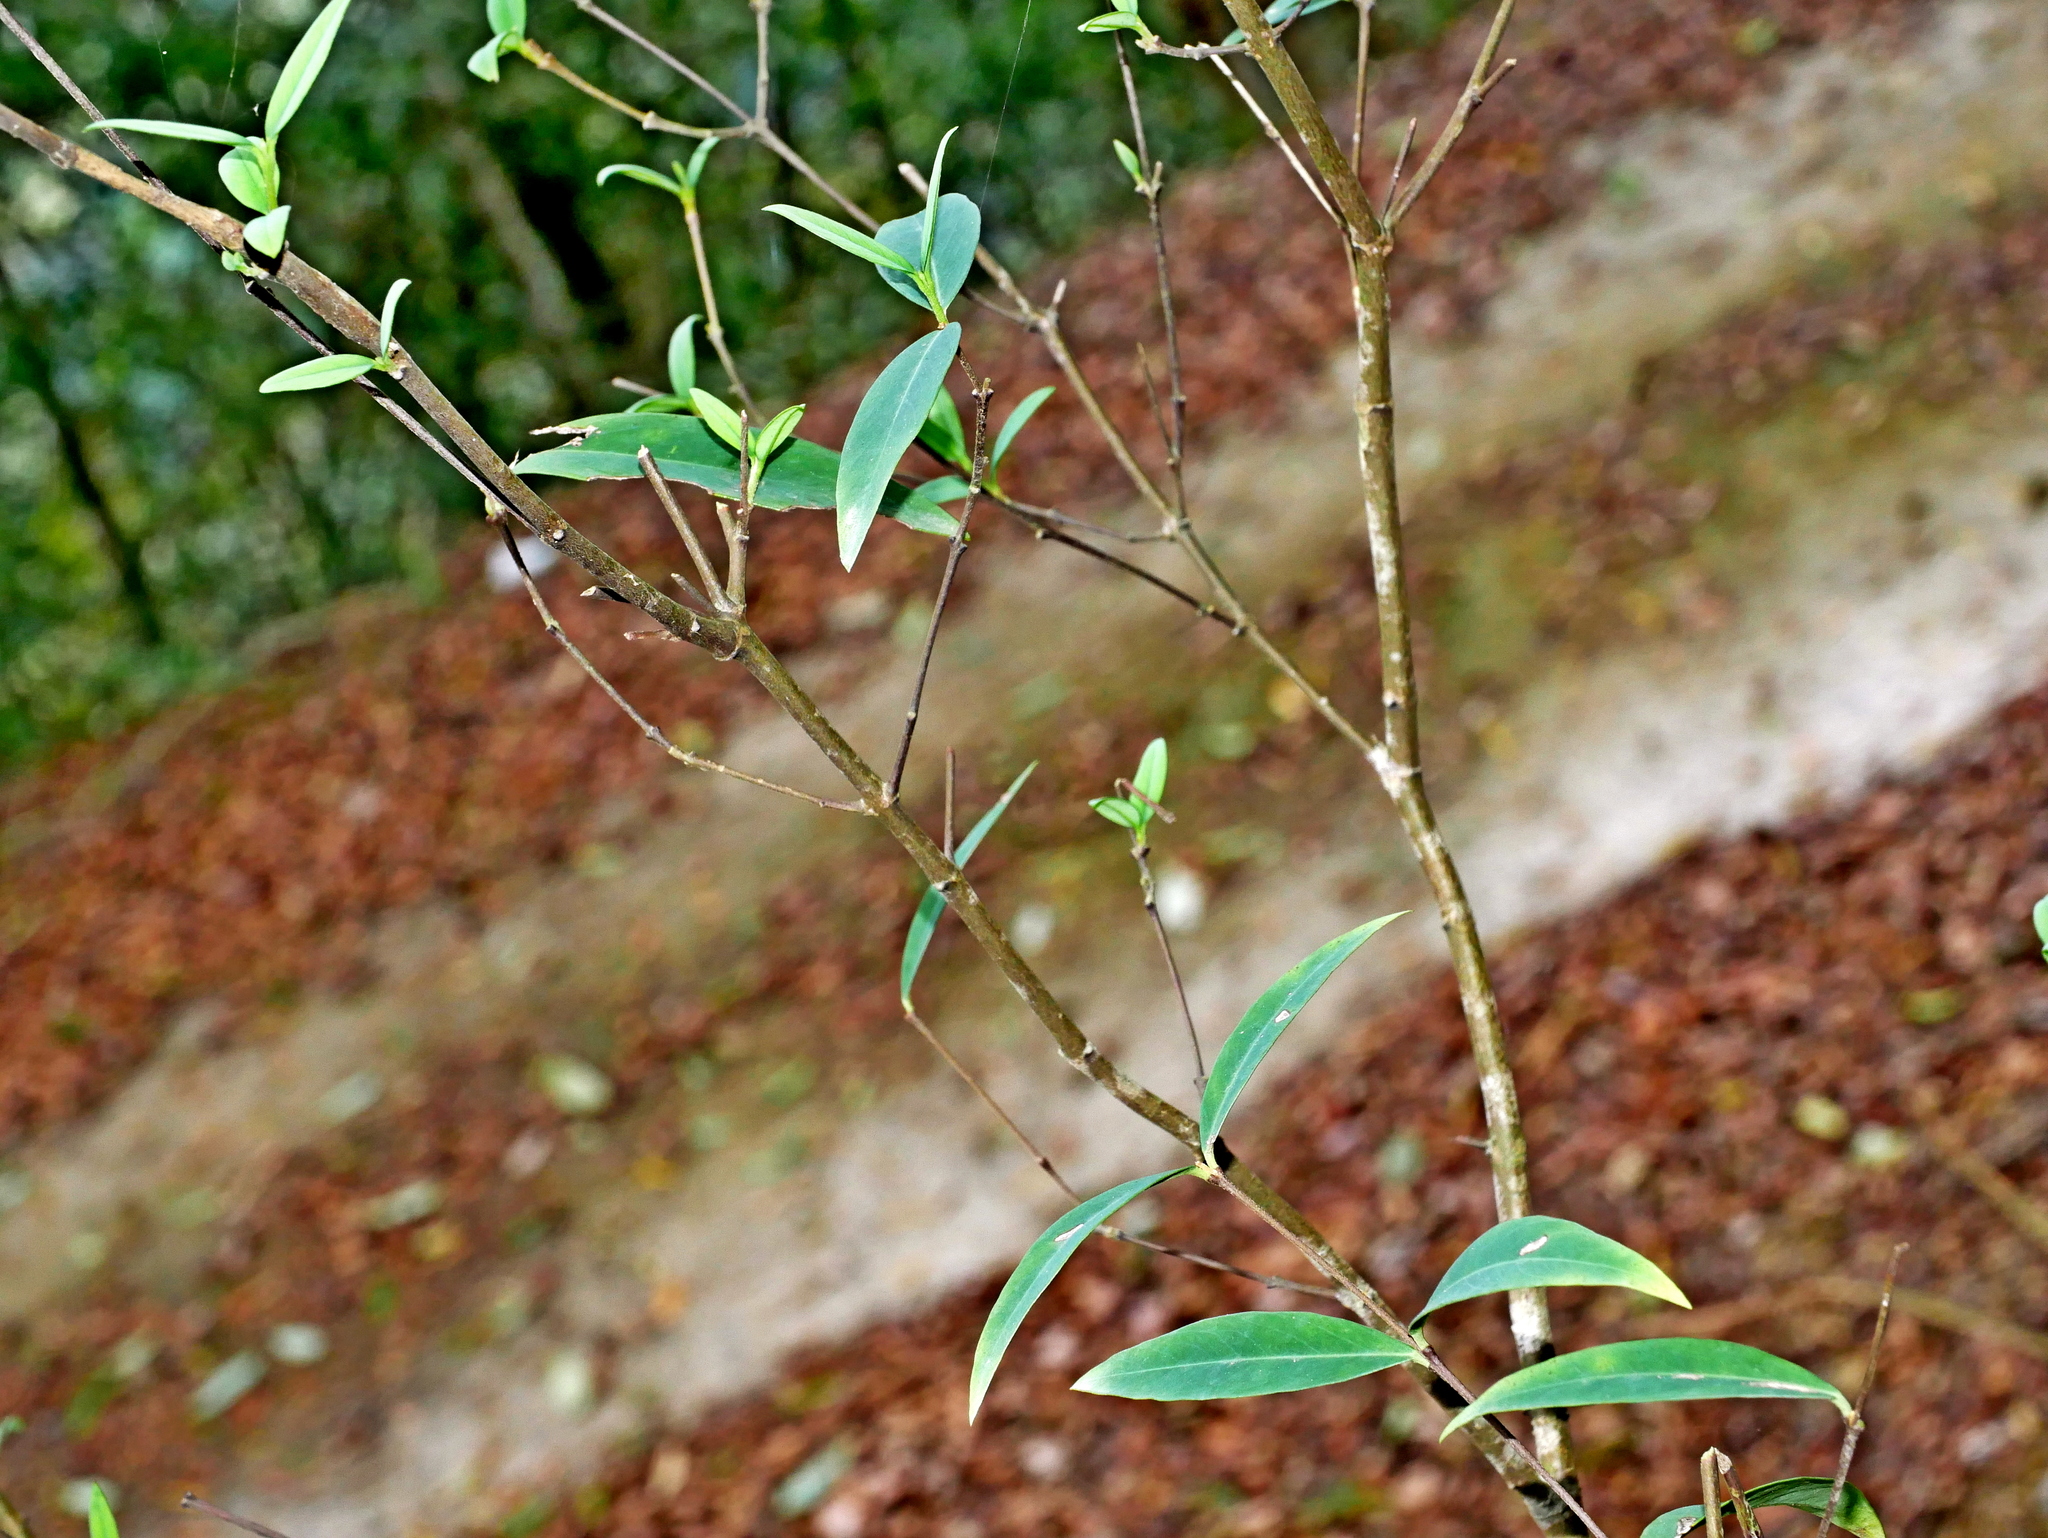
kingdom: Plantae
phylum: Tracheophyta
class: Magnoliopsida
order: Malvales
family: Thymelaeaceae
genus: Wikstroemia
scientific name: Wikstroemia lanceolata
